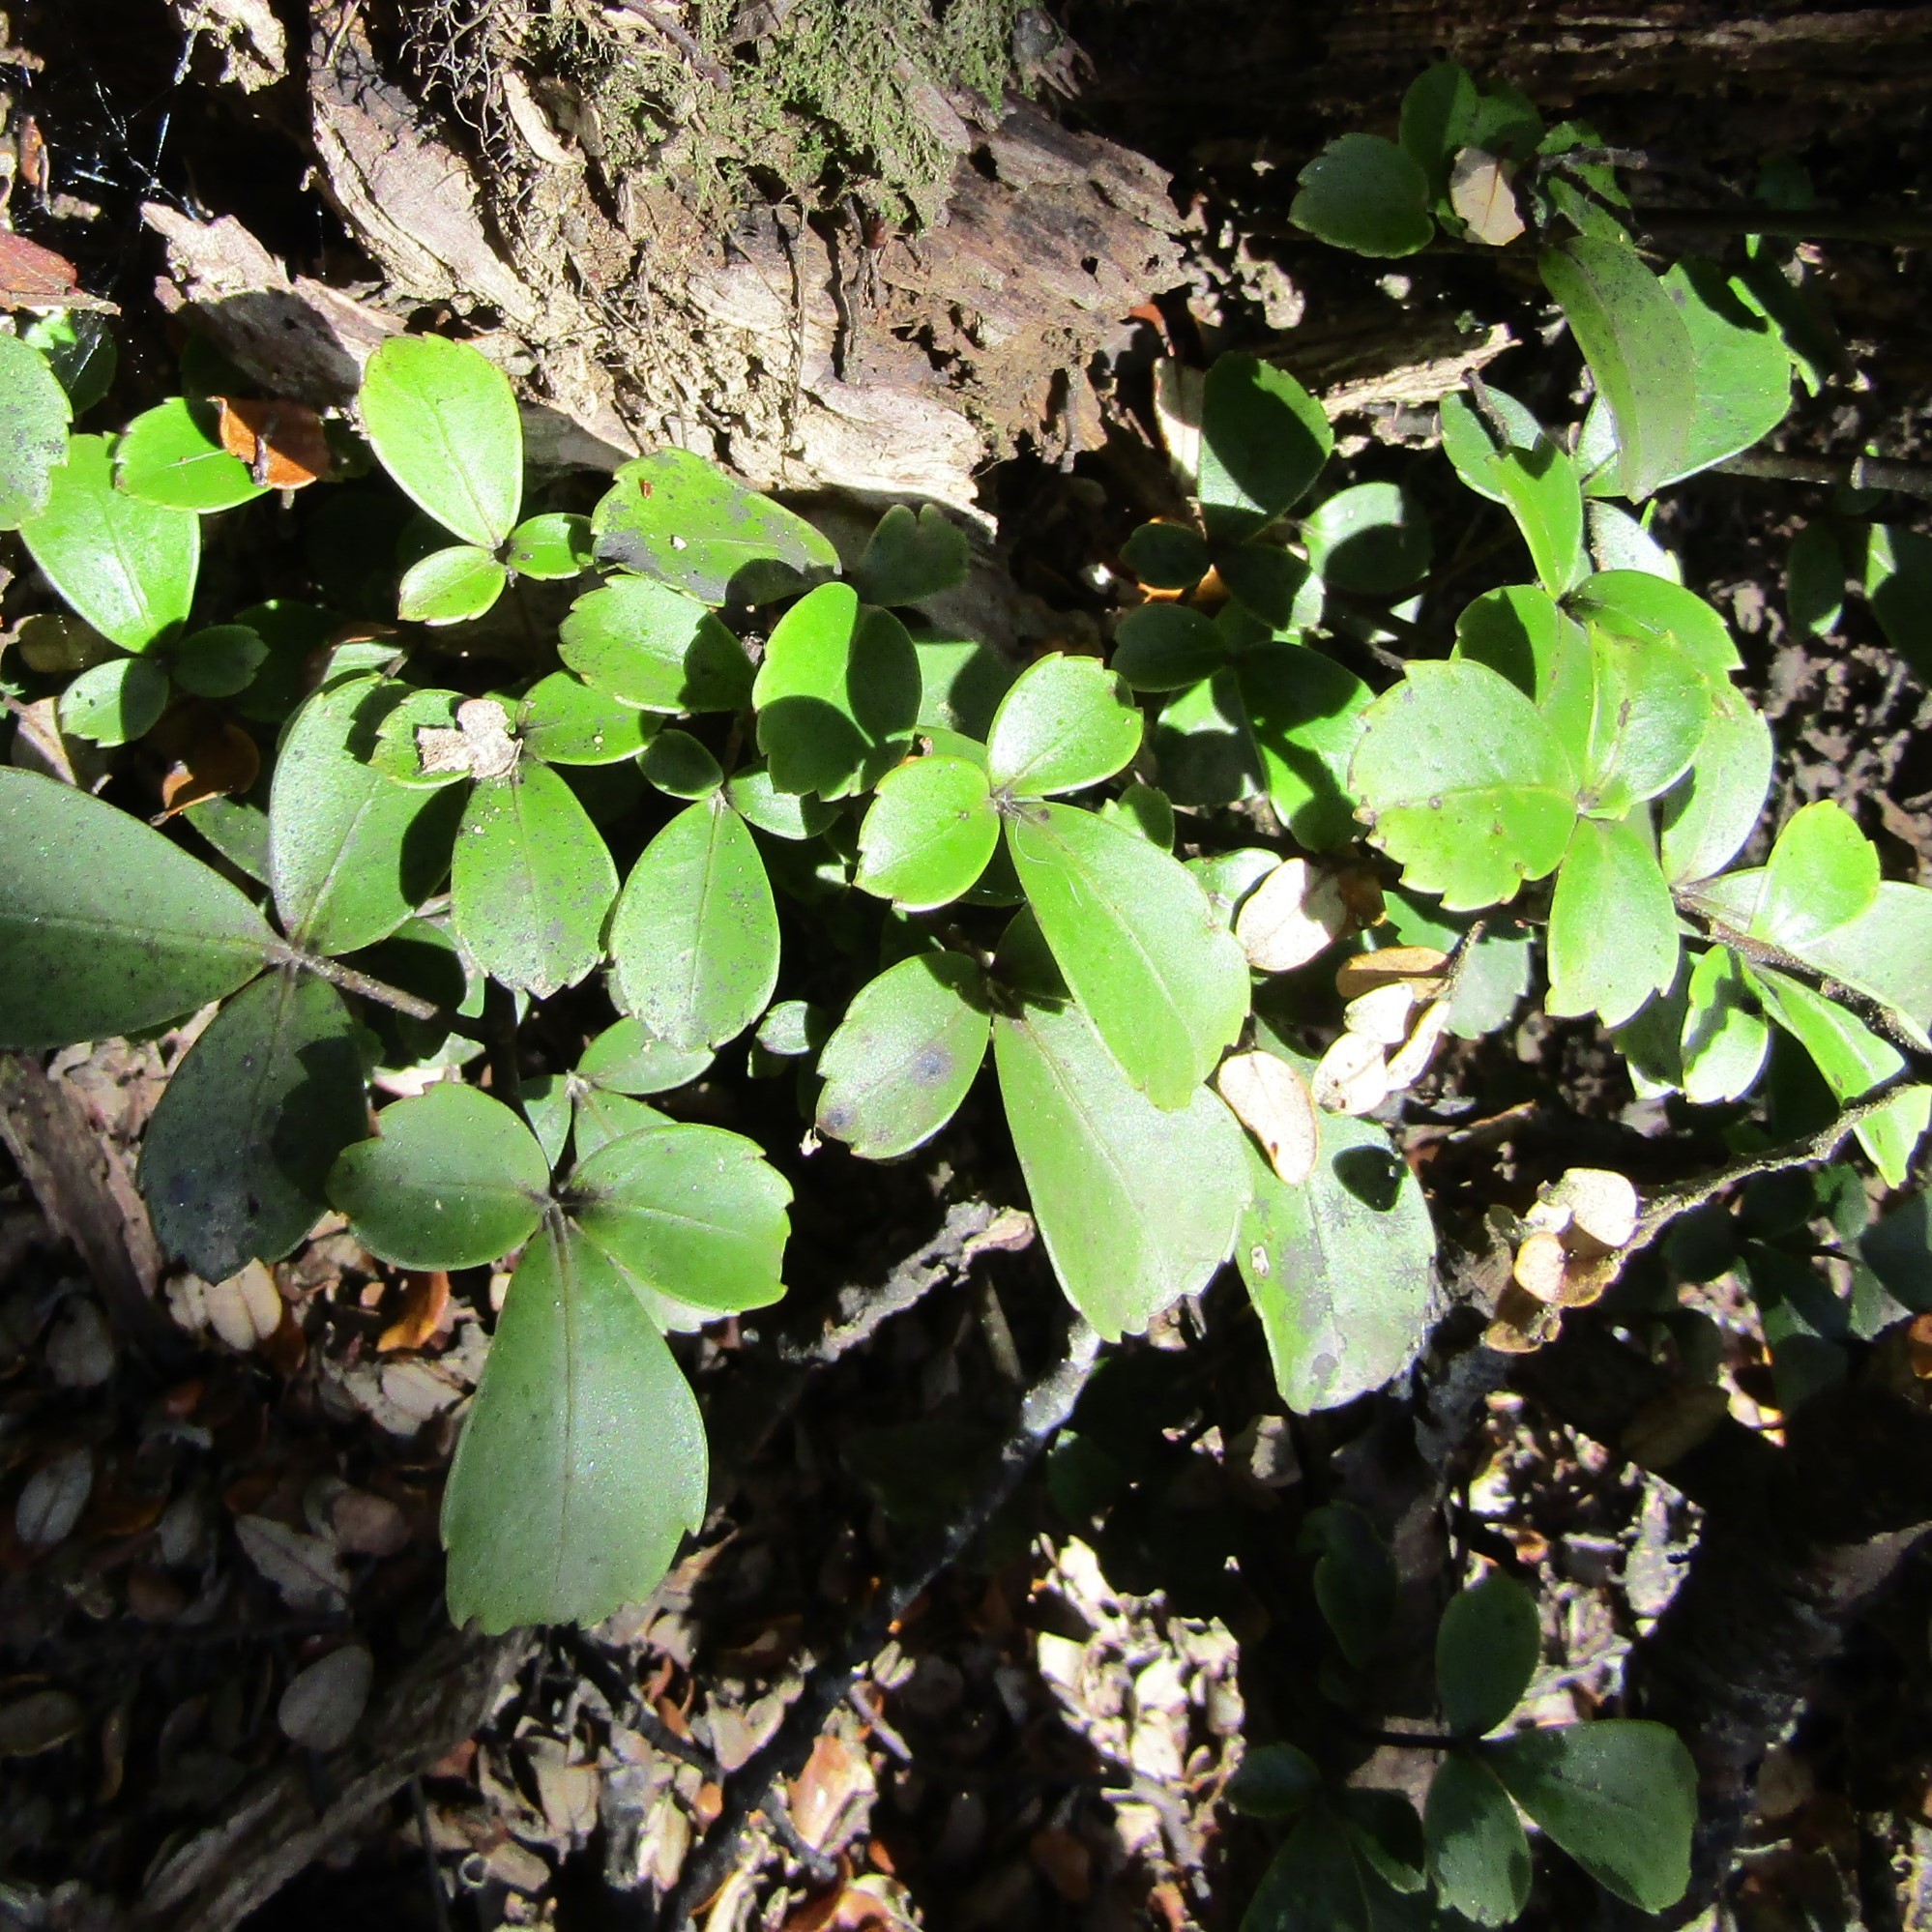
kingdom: Plantae
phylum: Tracheophyta
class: Magnoliopsida
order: Apiales
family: Araliaceae
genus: Neopanax
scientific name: Neopanax colensoi
